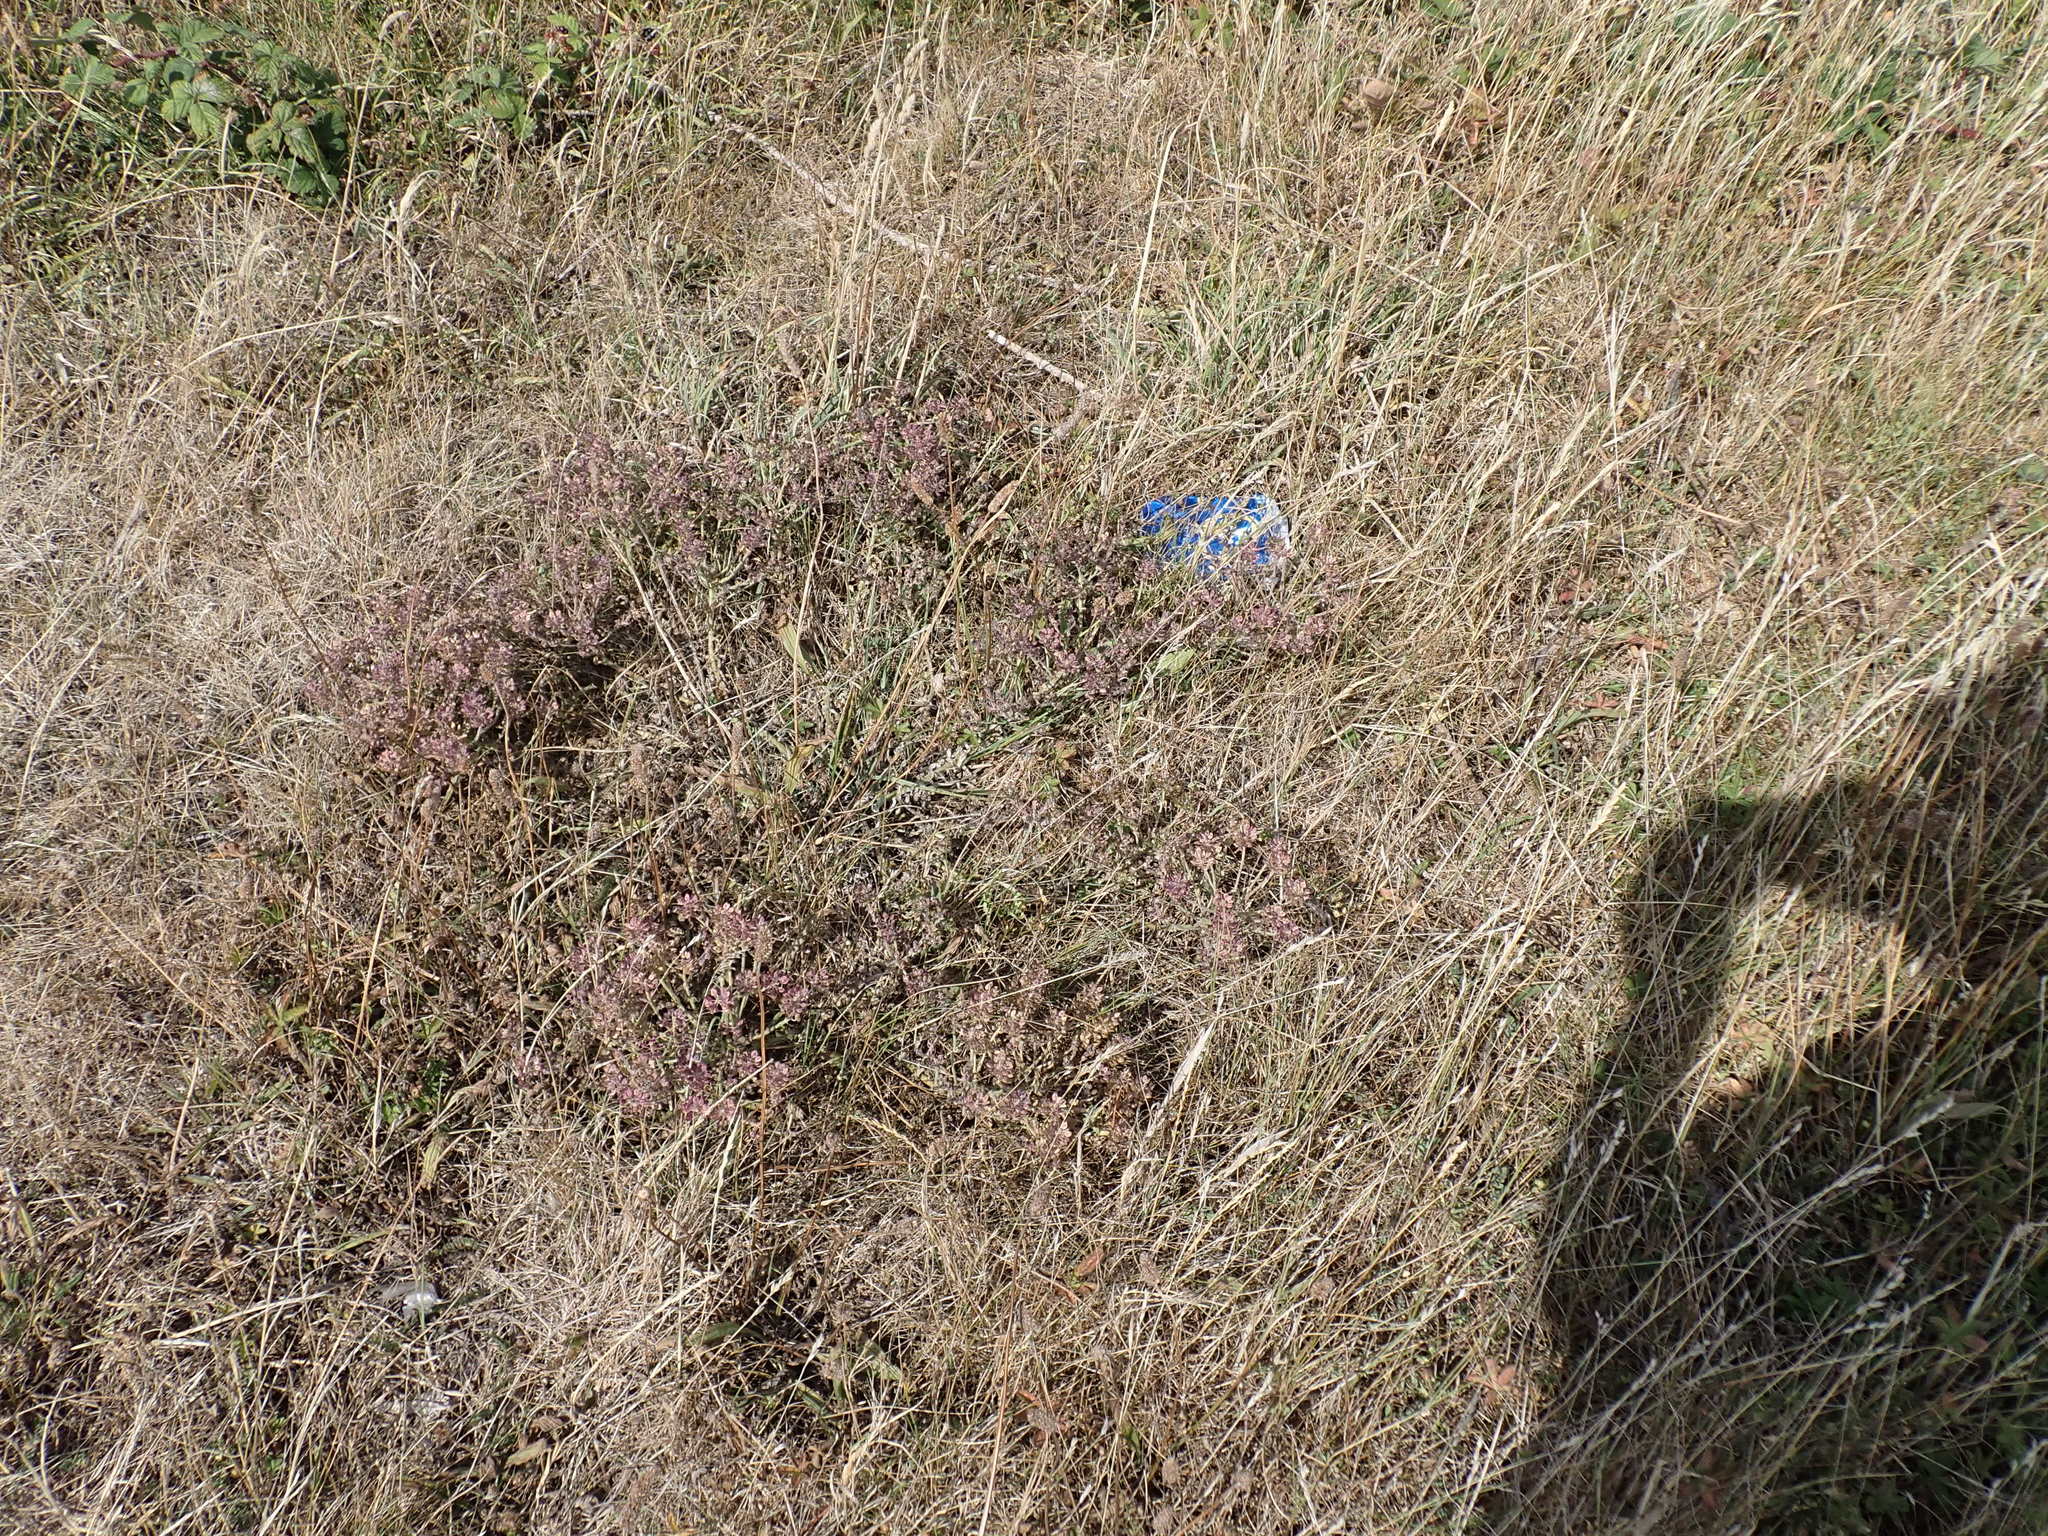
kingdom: Plantae
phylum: Tracheophyta
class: Magnoliopsida
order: Brassicales
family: Brassicaceae
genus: Lepidium
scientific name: Lepidium heterophyllum
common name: Smith's pepperwort
